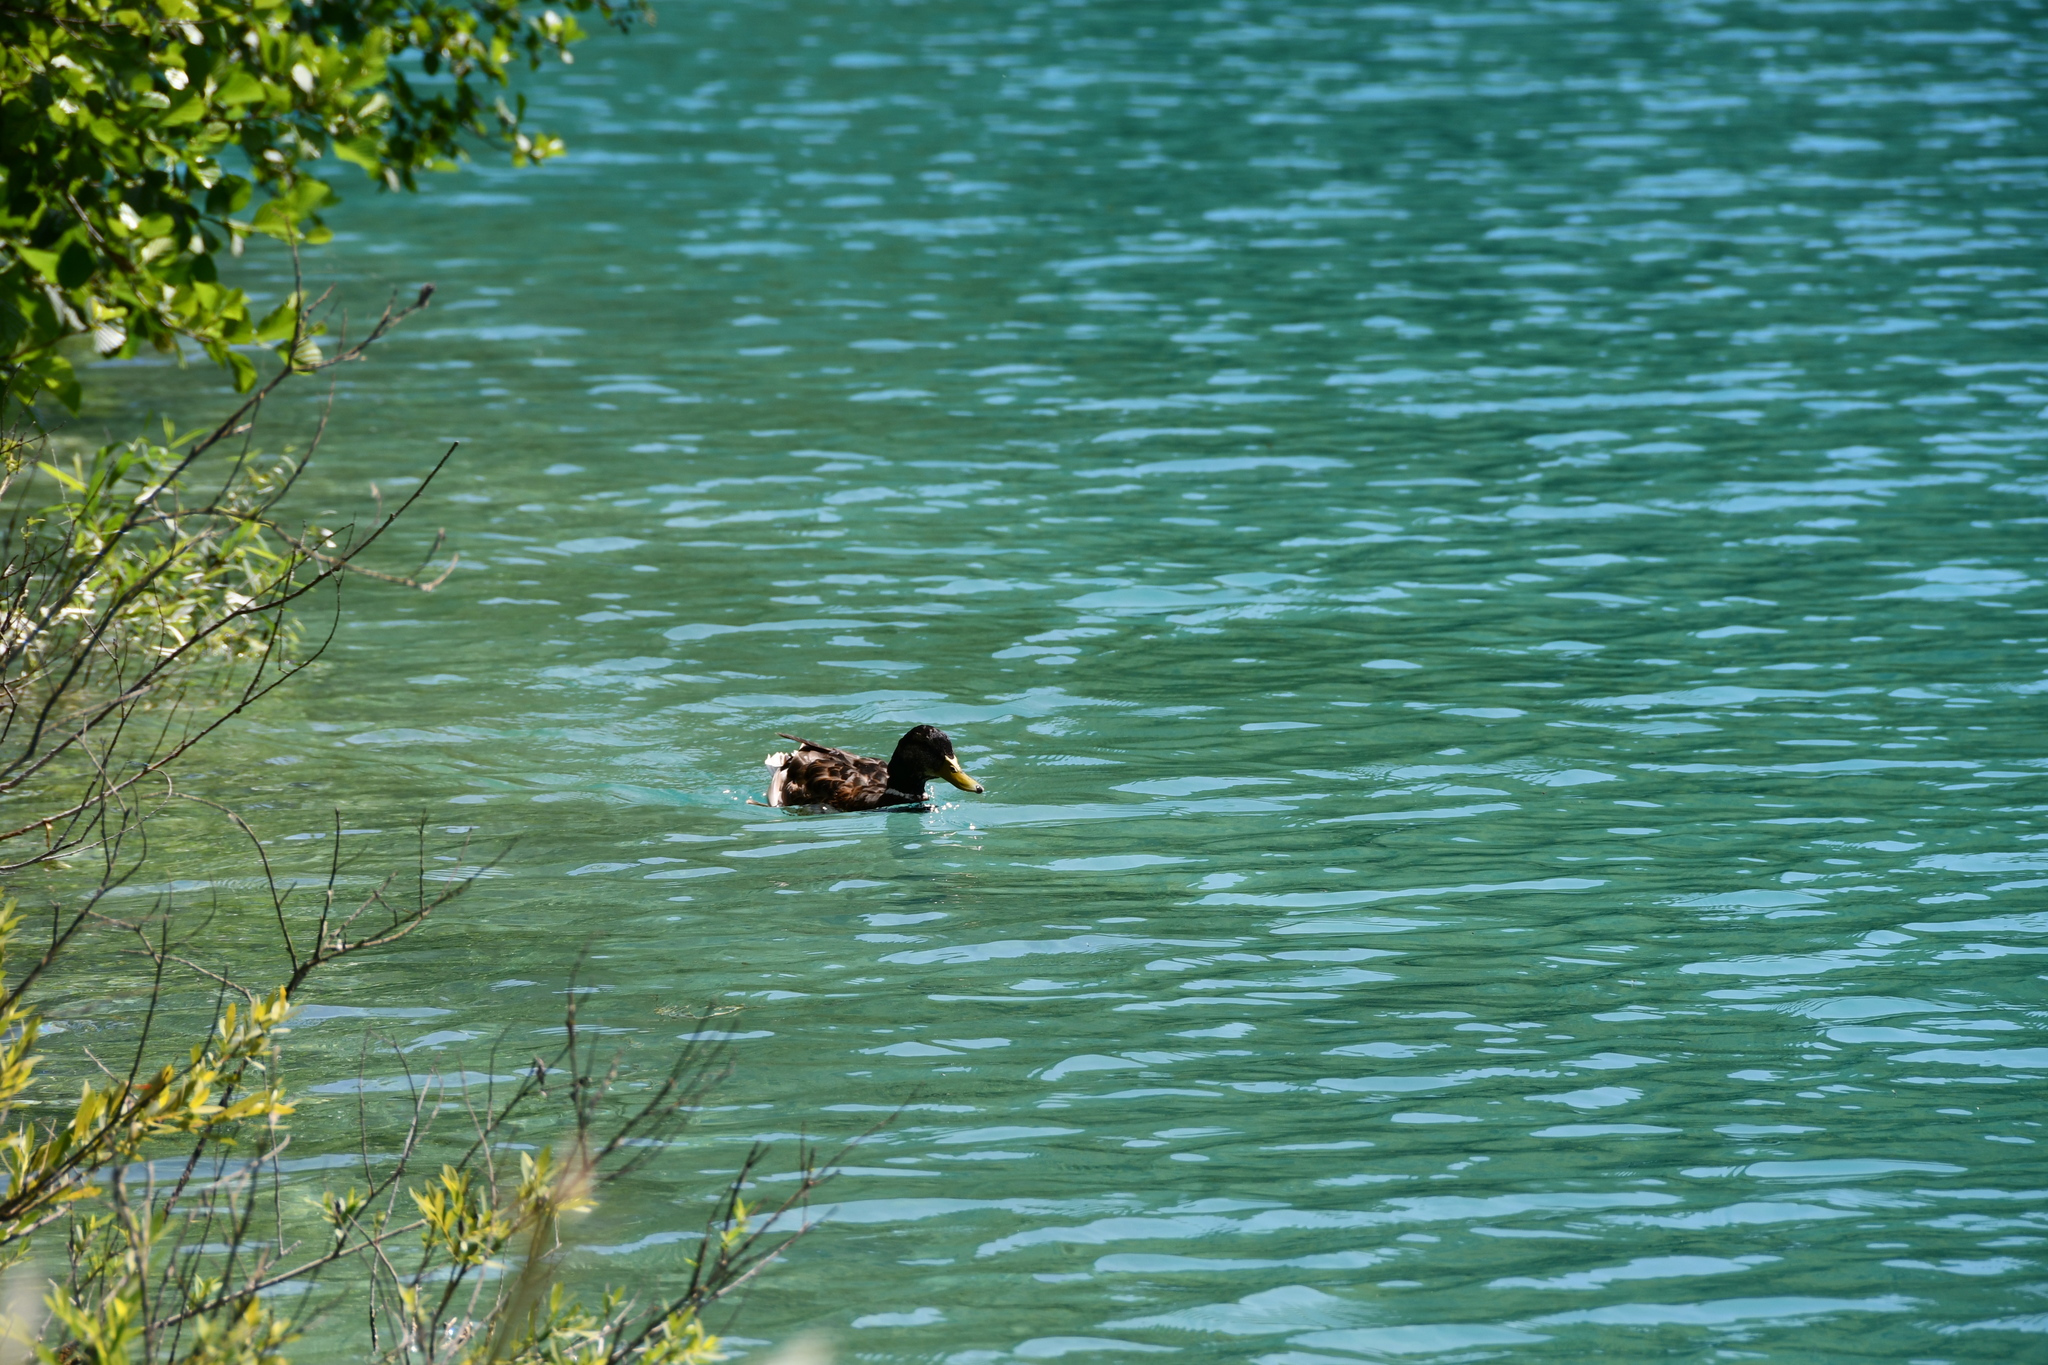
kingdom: Animalia
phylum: Chordata
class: Aves
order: Anseriformes
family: Anatidae
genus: Anas
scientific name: Anas platyrhynchos
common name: Mallard
